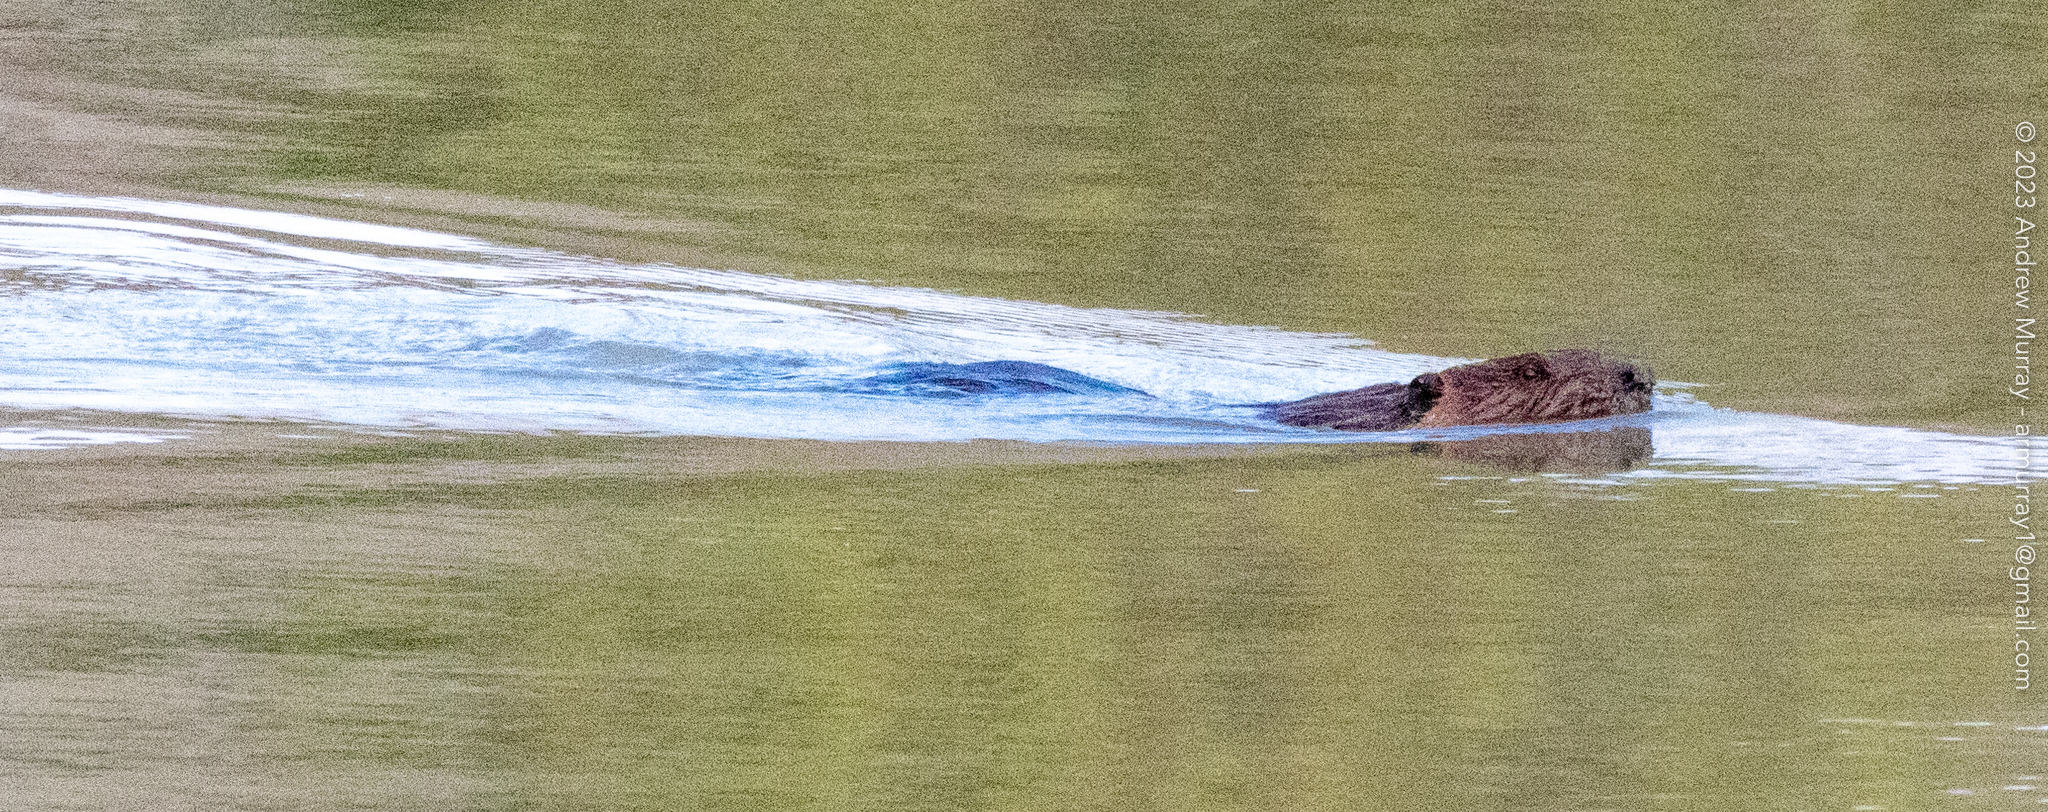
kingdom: Animalia
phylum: Chordata
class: Mammalia
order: Rodentia
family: Castoridae
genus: Castor
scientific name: Castor canadensis
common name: American beaver
